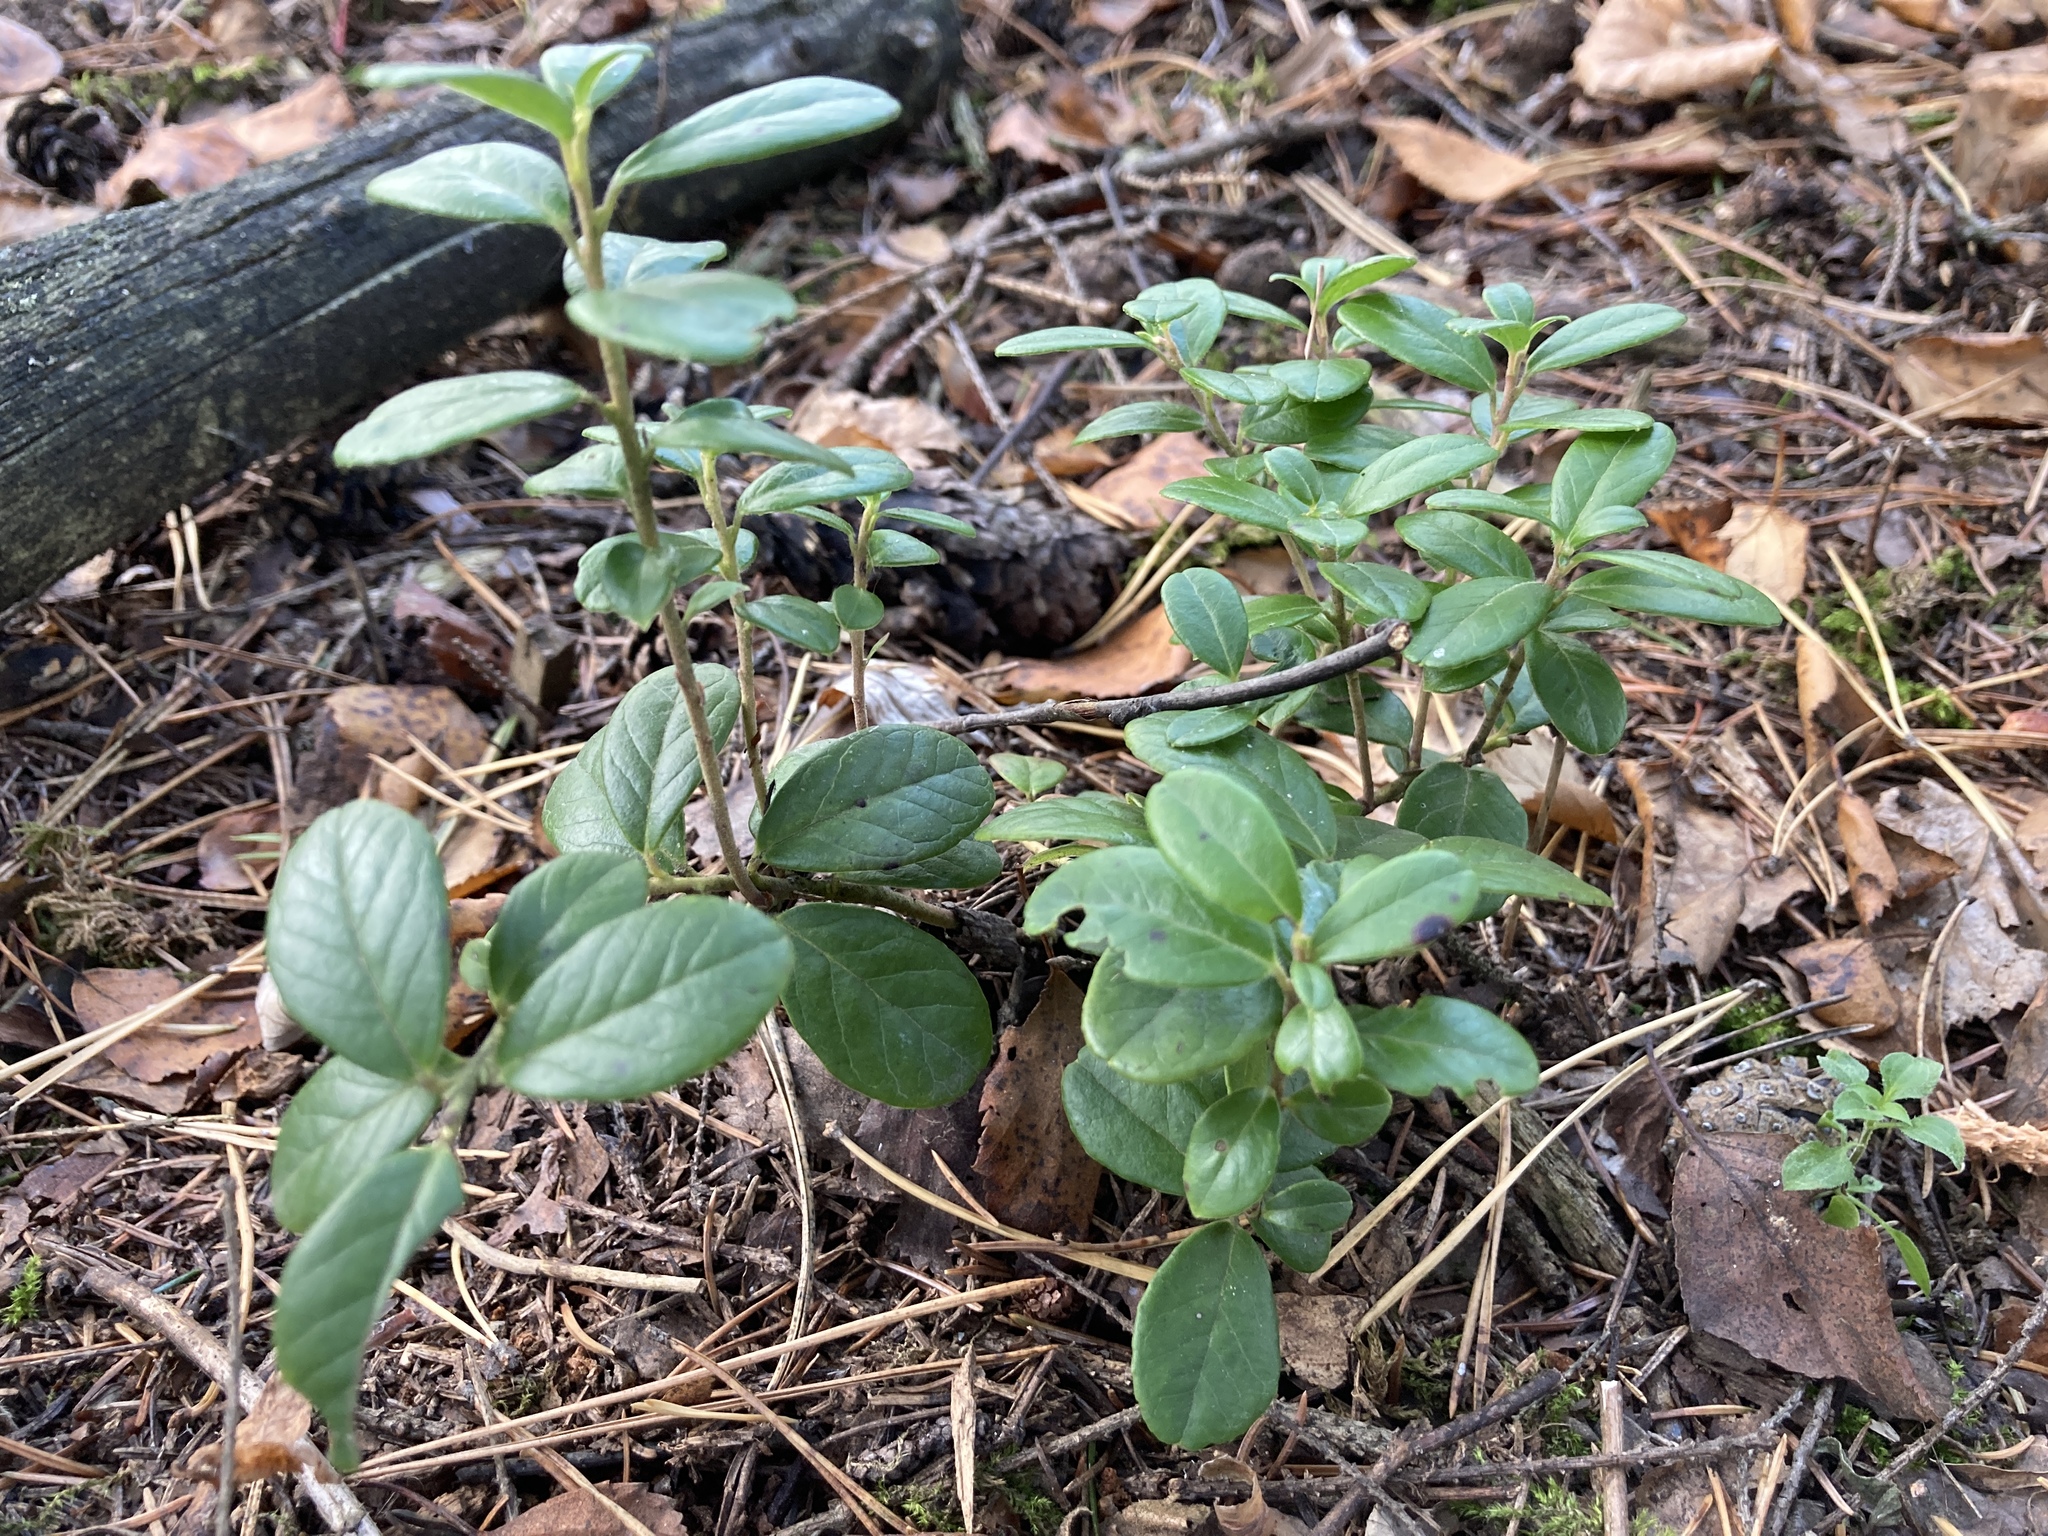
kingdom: Plantae
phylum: Tracheophyta
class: Magnoliopsida
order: Ericales
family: Ericaceae
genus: Vaccinium
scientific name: Vaccinium vitis-idaea
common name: Cowberry
